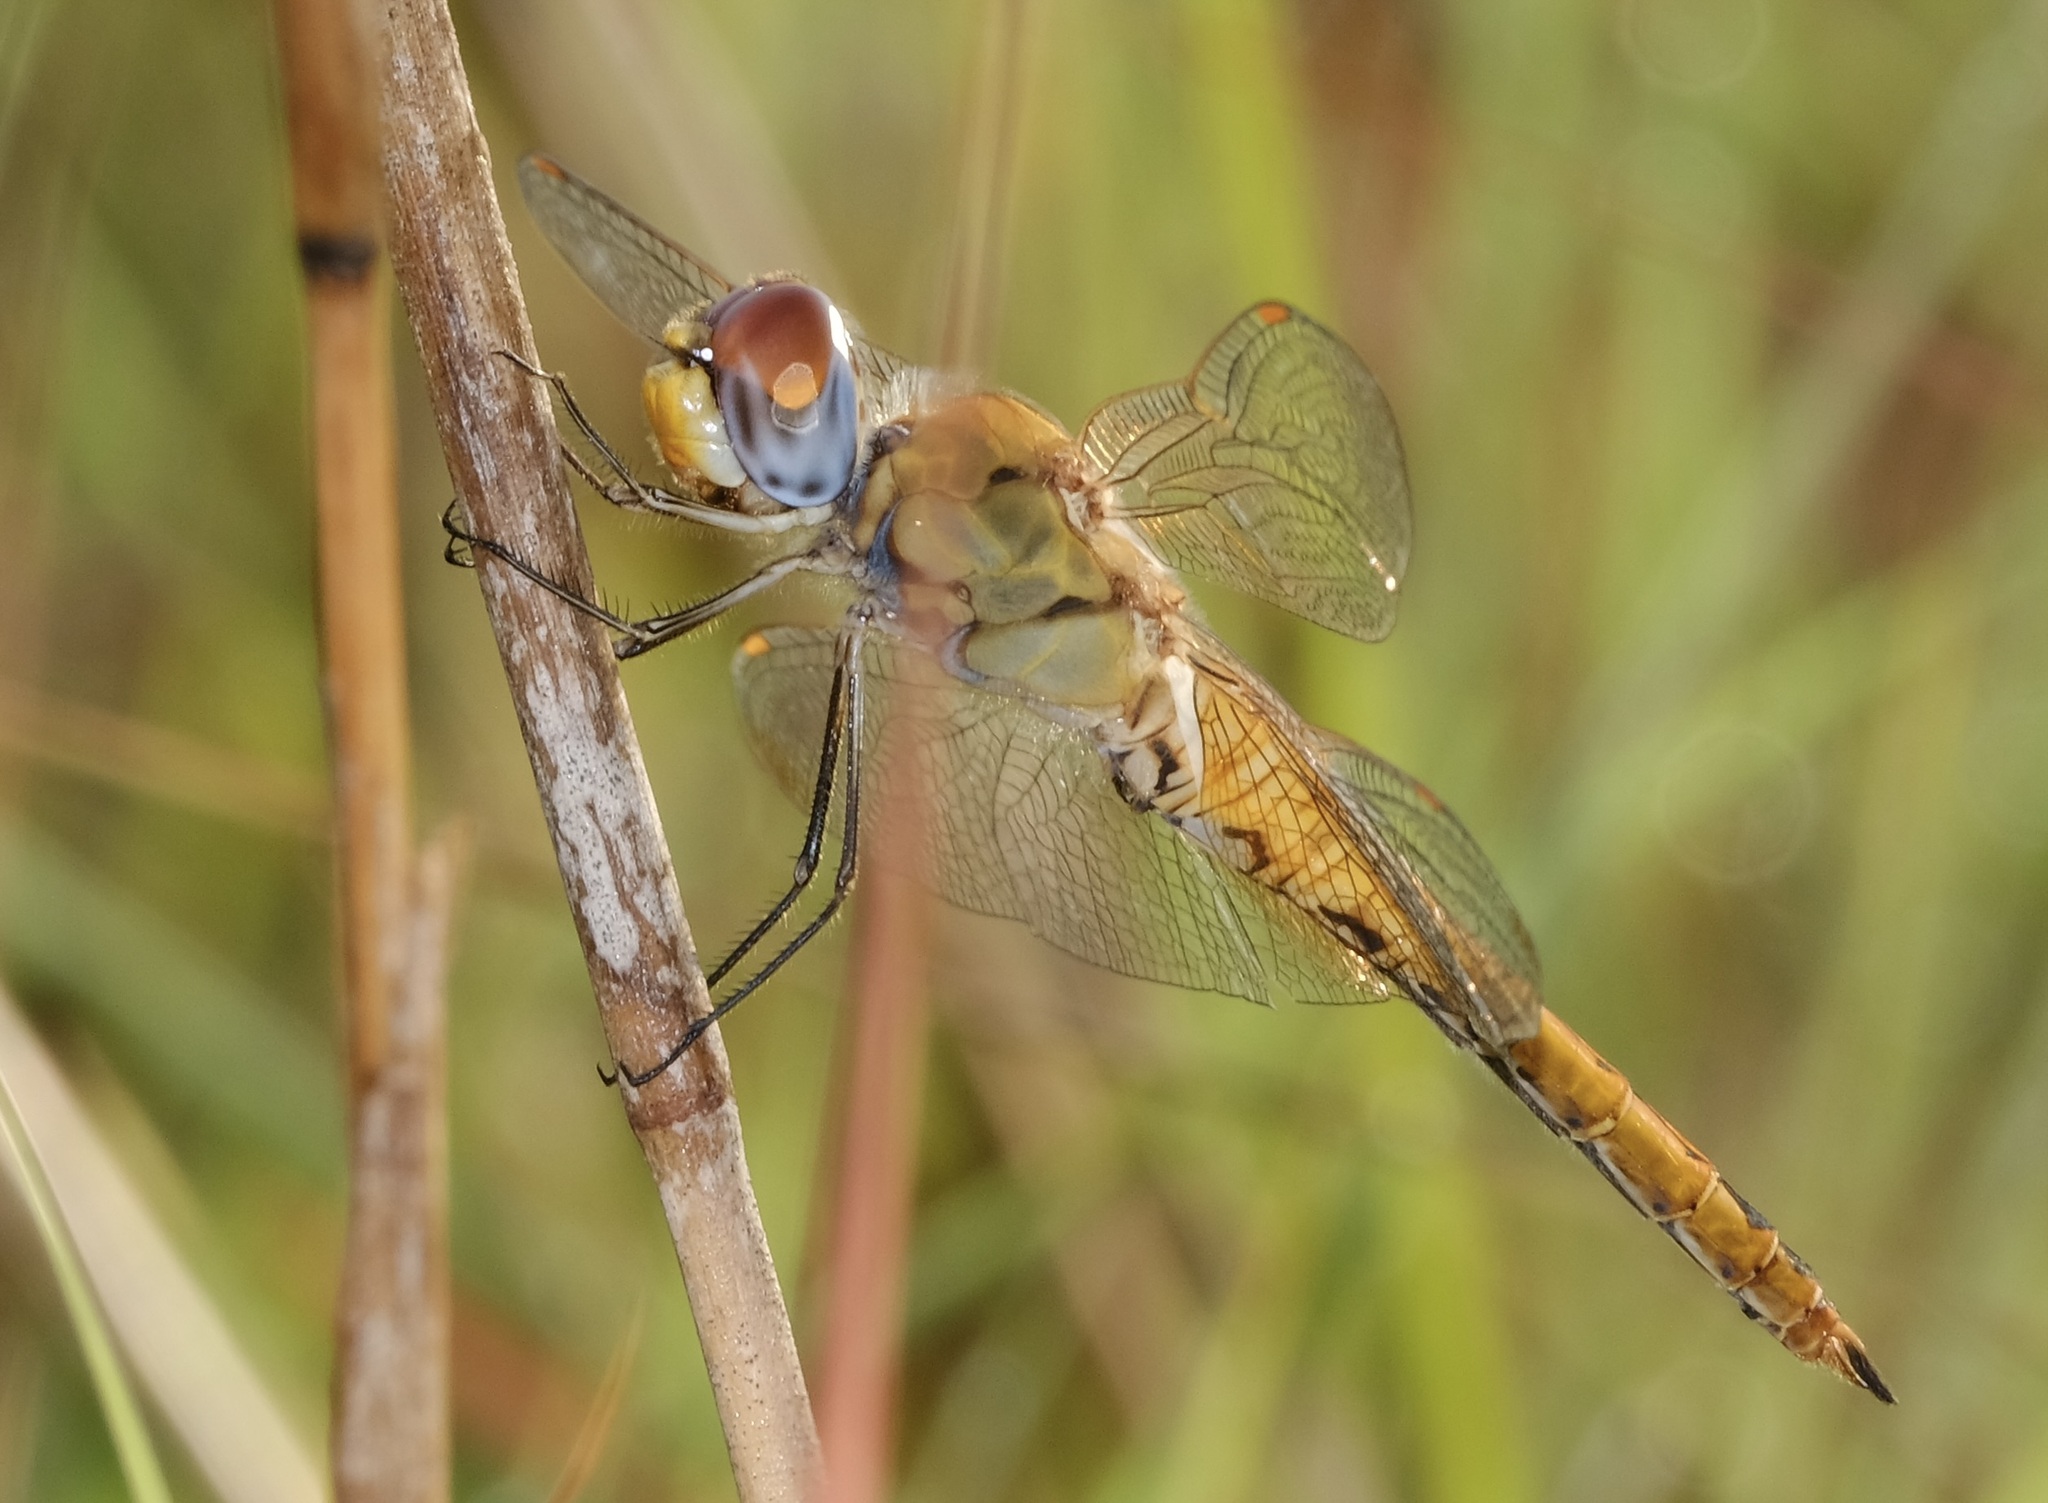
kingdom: Animalia
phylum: Arthropoda
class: Insecta
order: Odonata
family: Libellulidae
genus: Pantala
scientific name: Pantala flavescens
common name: Wandering glider
